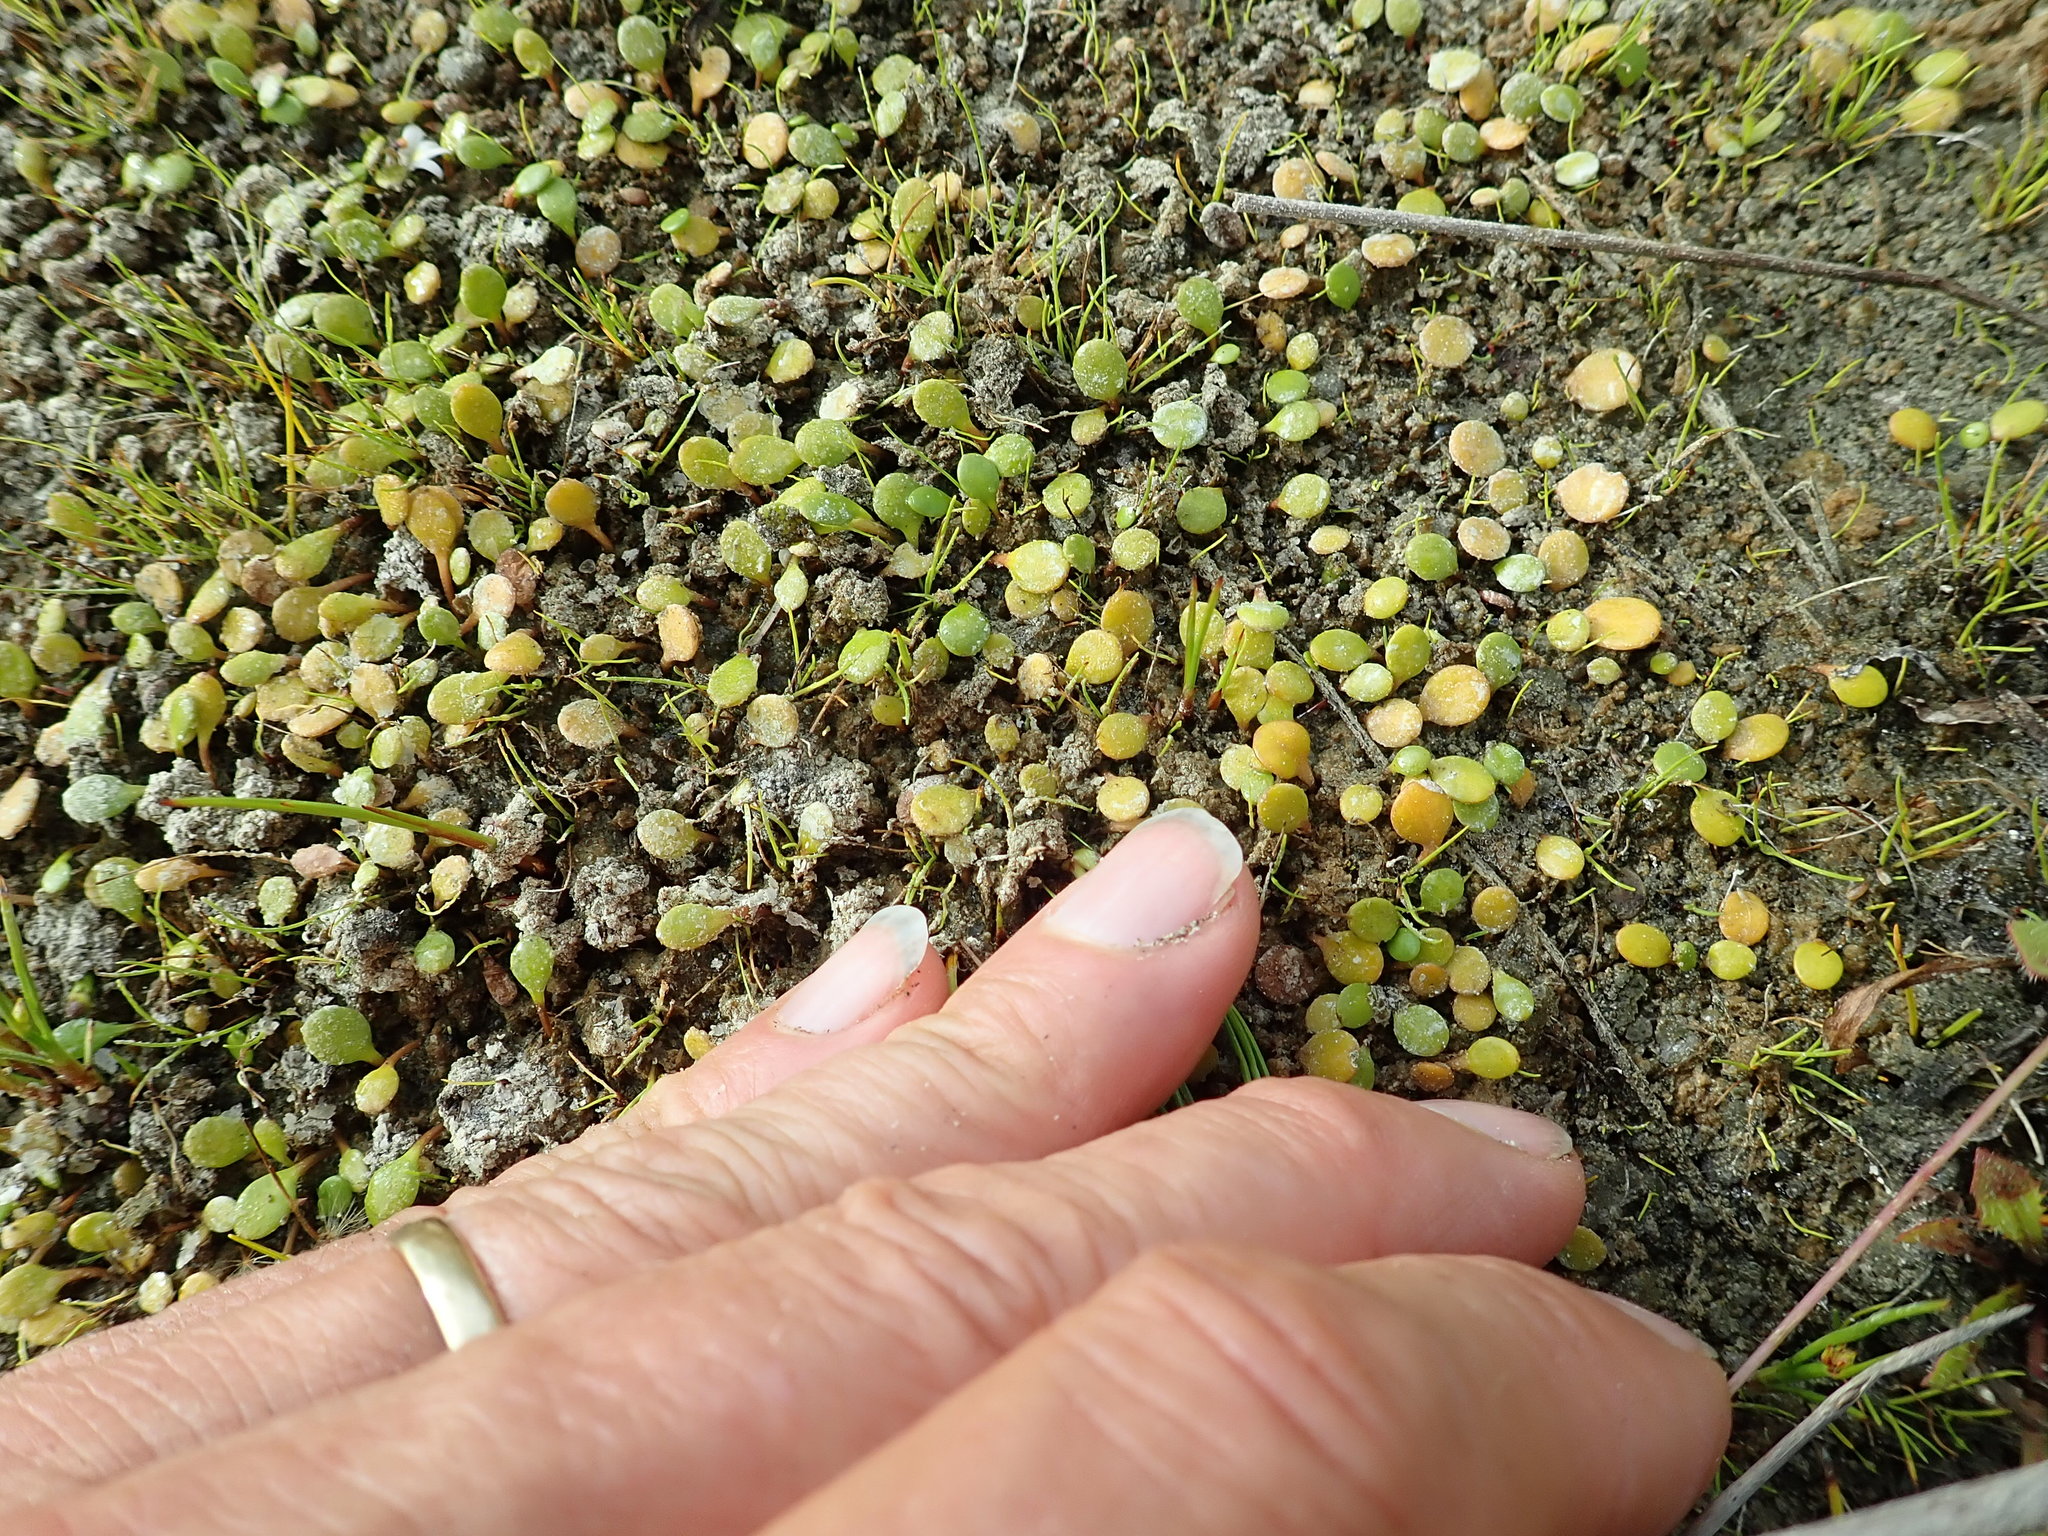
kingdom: Plantae
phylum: Tracheophyta
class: Magnoliopsida
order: Asterales
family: Goodeniaceae
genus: Goodenia
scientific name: Goodenia heenanii
